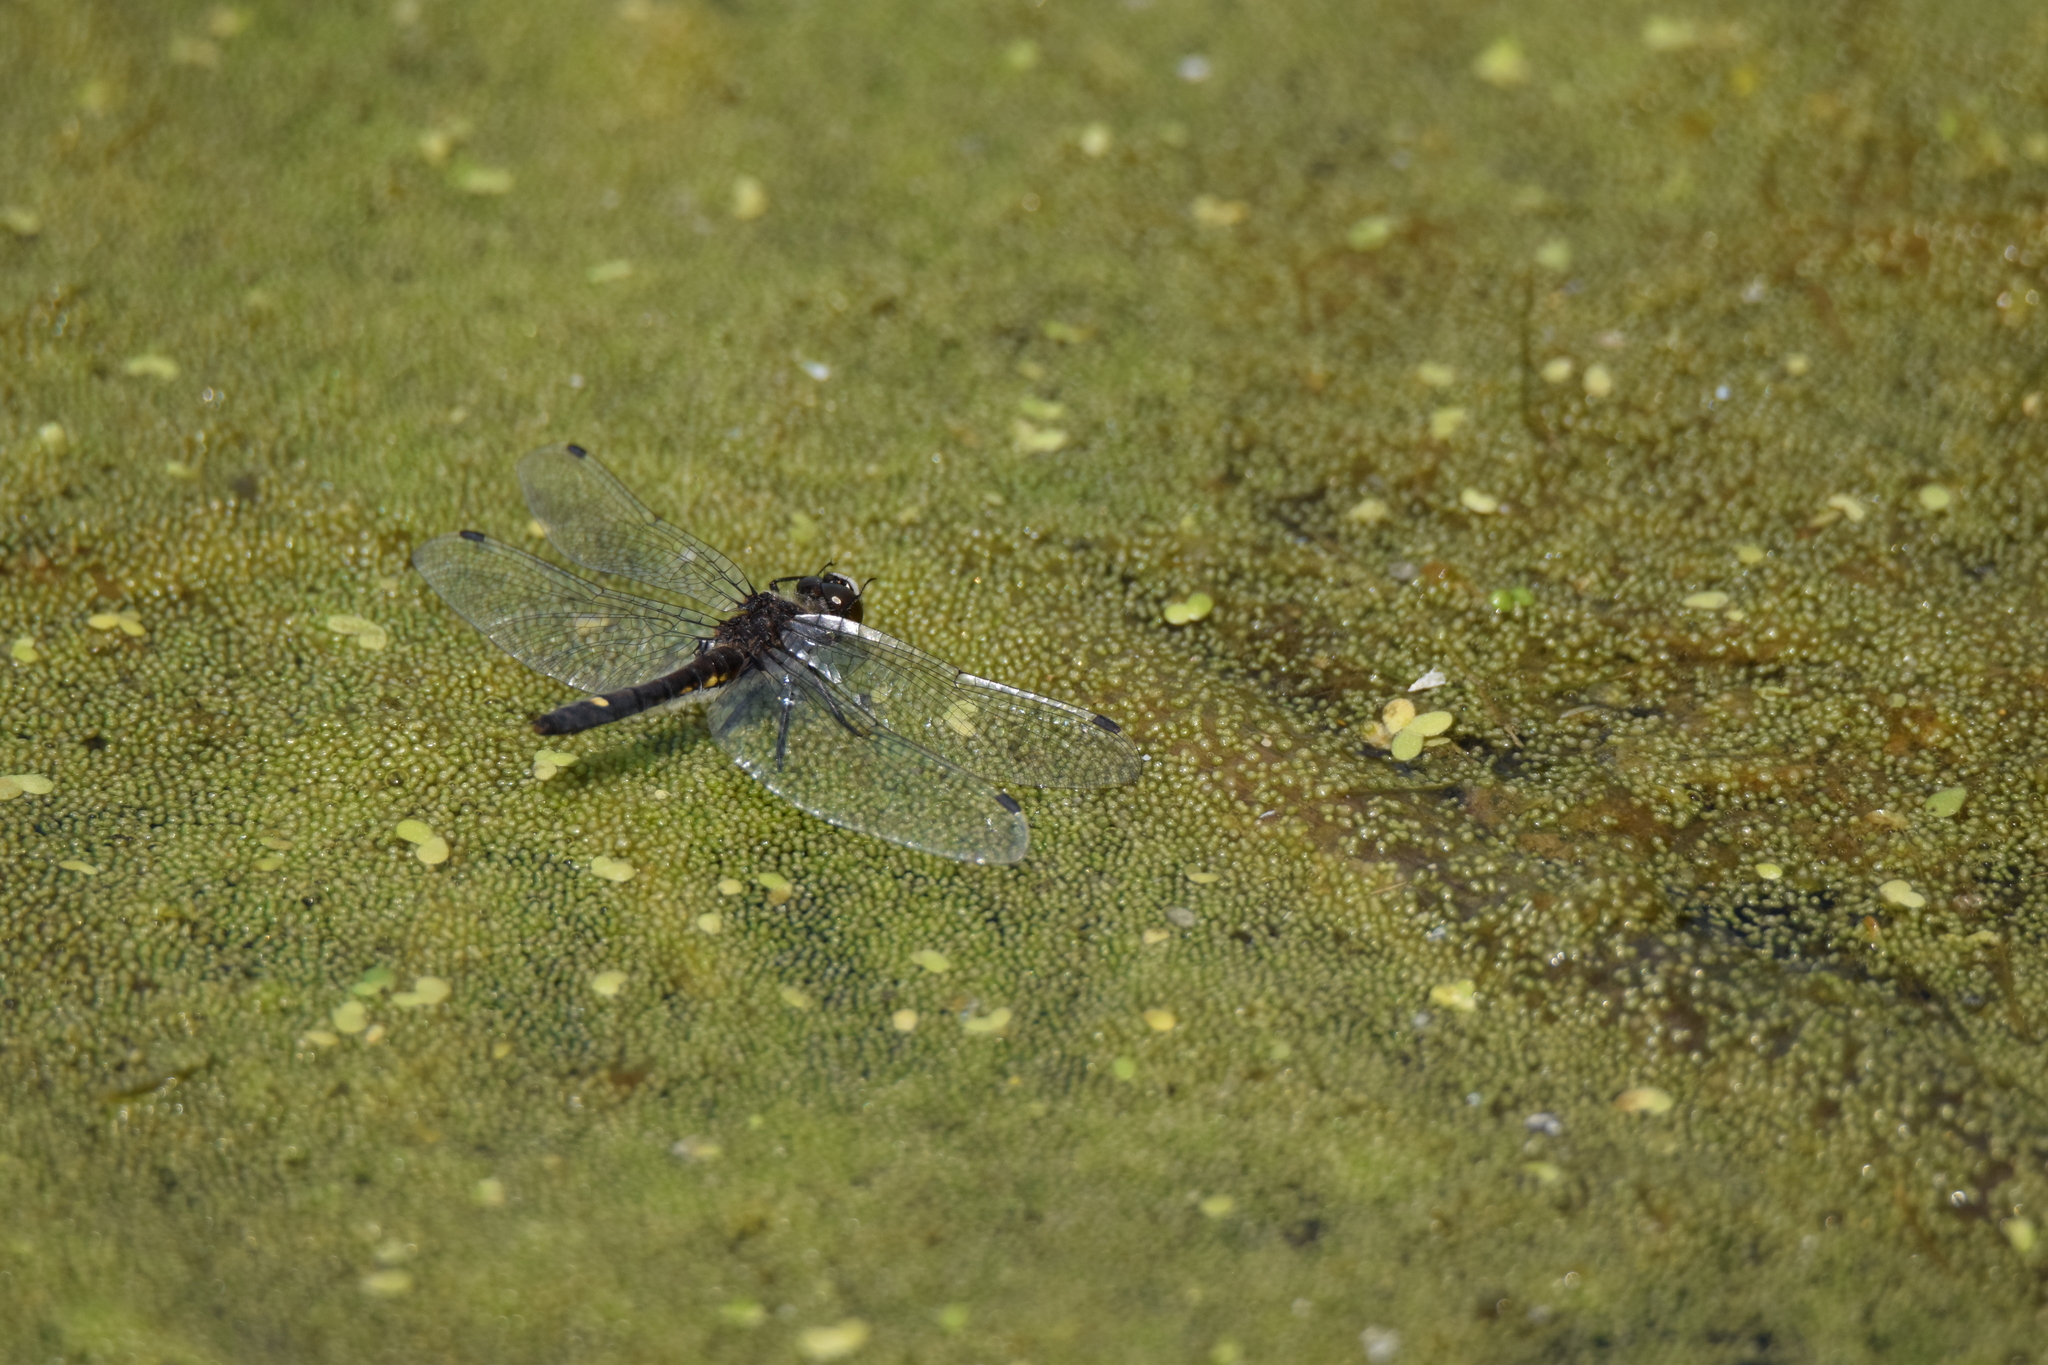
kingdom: Animalia
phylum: Arthropoda
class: Insecta
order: Odonata
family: Libellulidae
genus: Leucorrhinia
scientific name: Leucorrhinia intacta
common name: Dot-tailed whiteface
